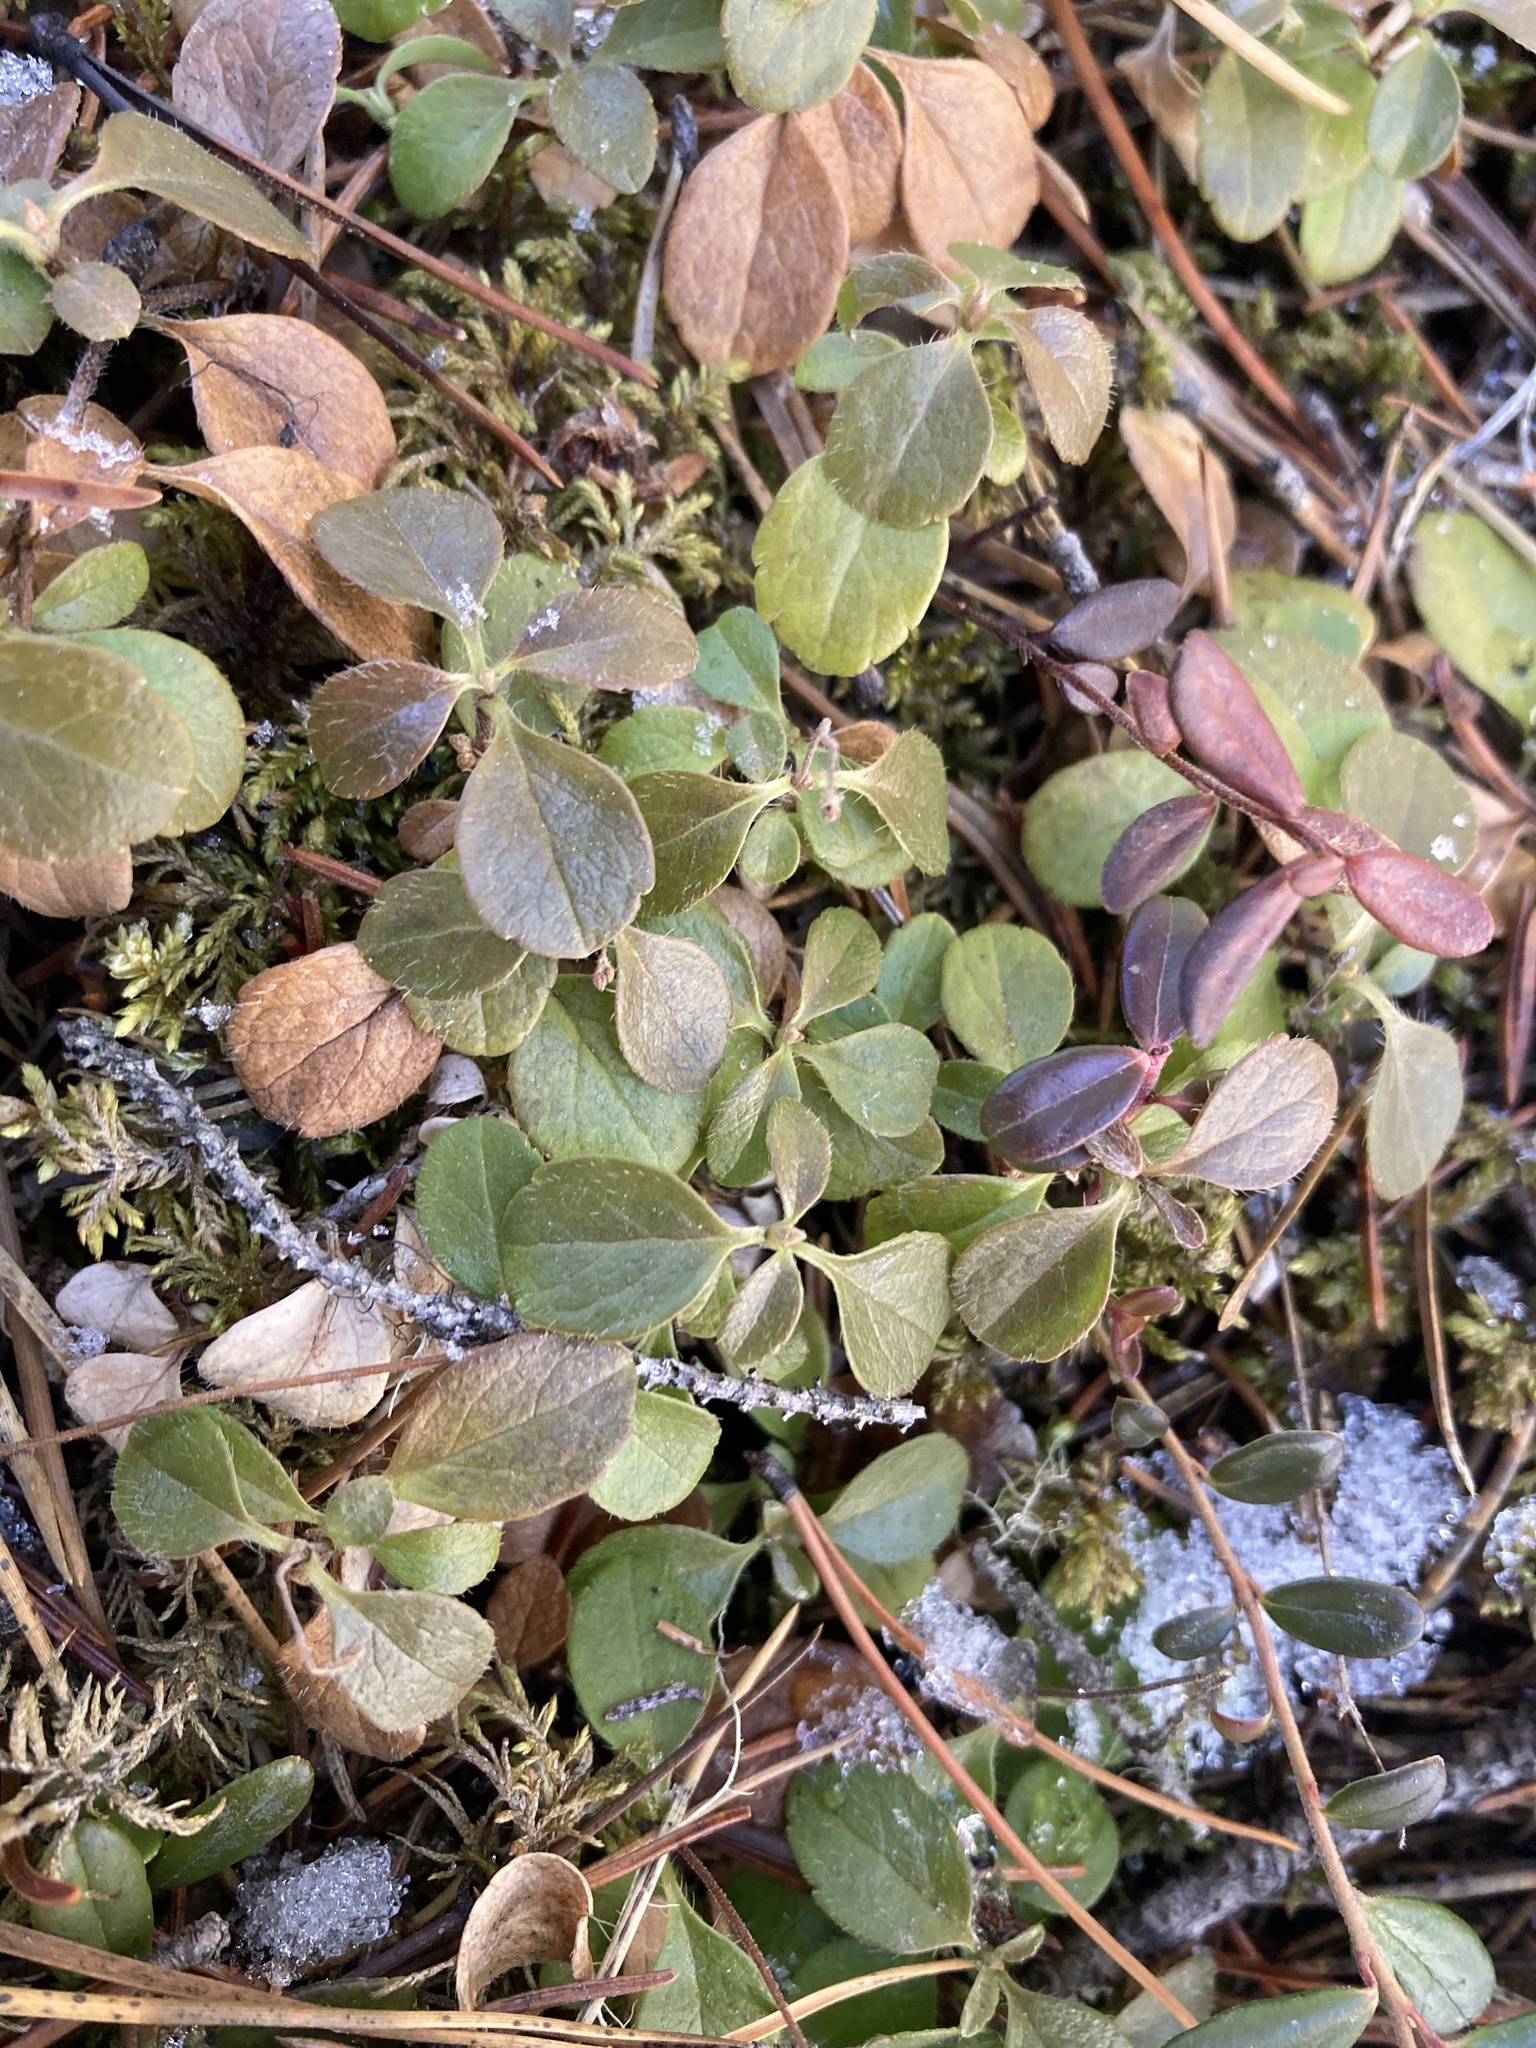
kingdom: Plantae
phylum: Tracheophyta
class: Magnoliopsida
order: Dipsacales
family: Caprifoliaceae
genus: Linnaea
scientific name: Linnaea borealis
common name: Twinflower
